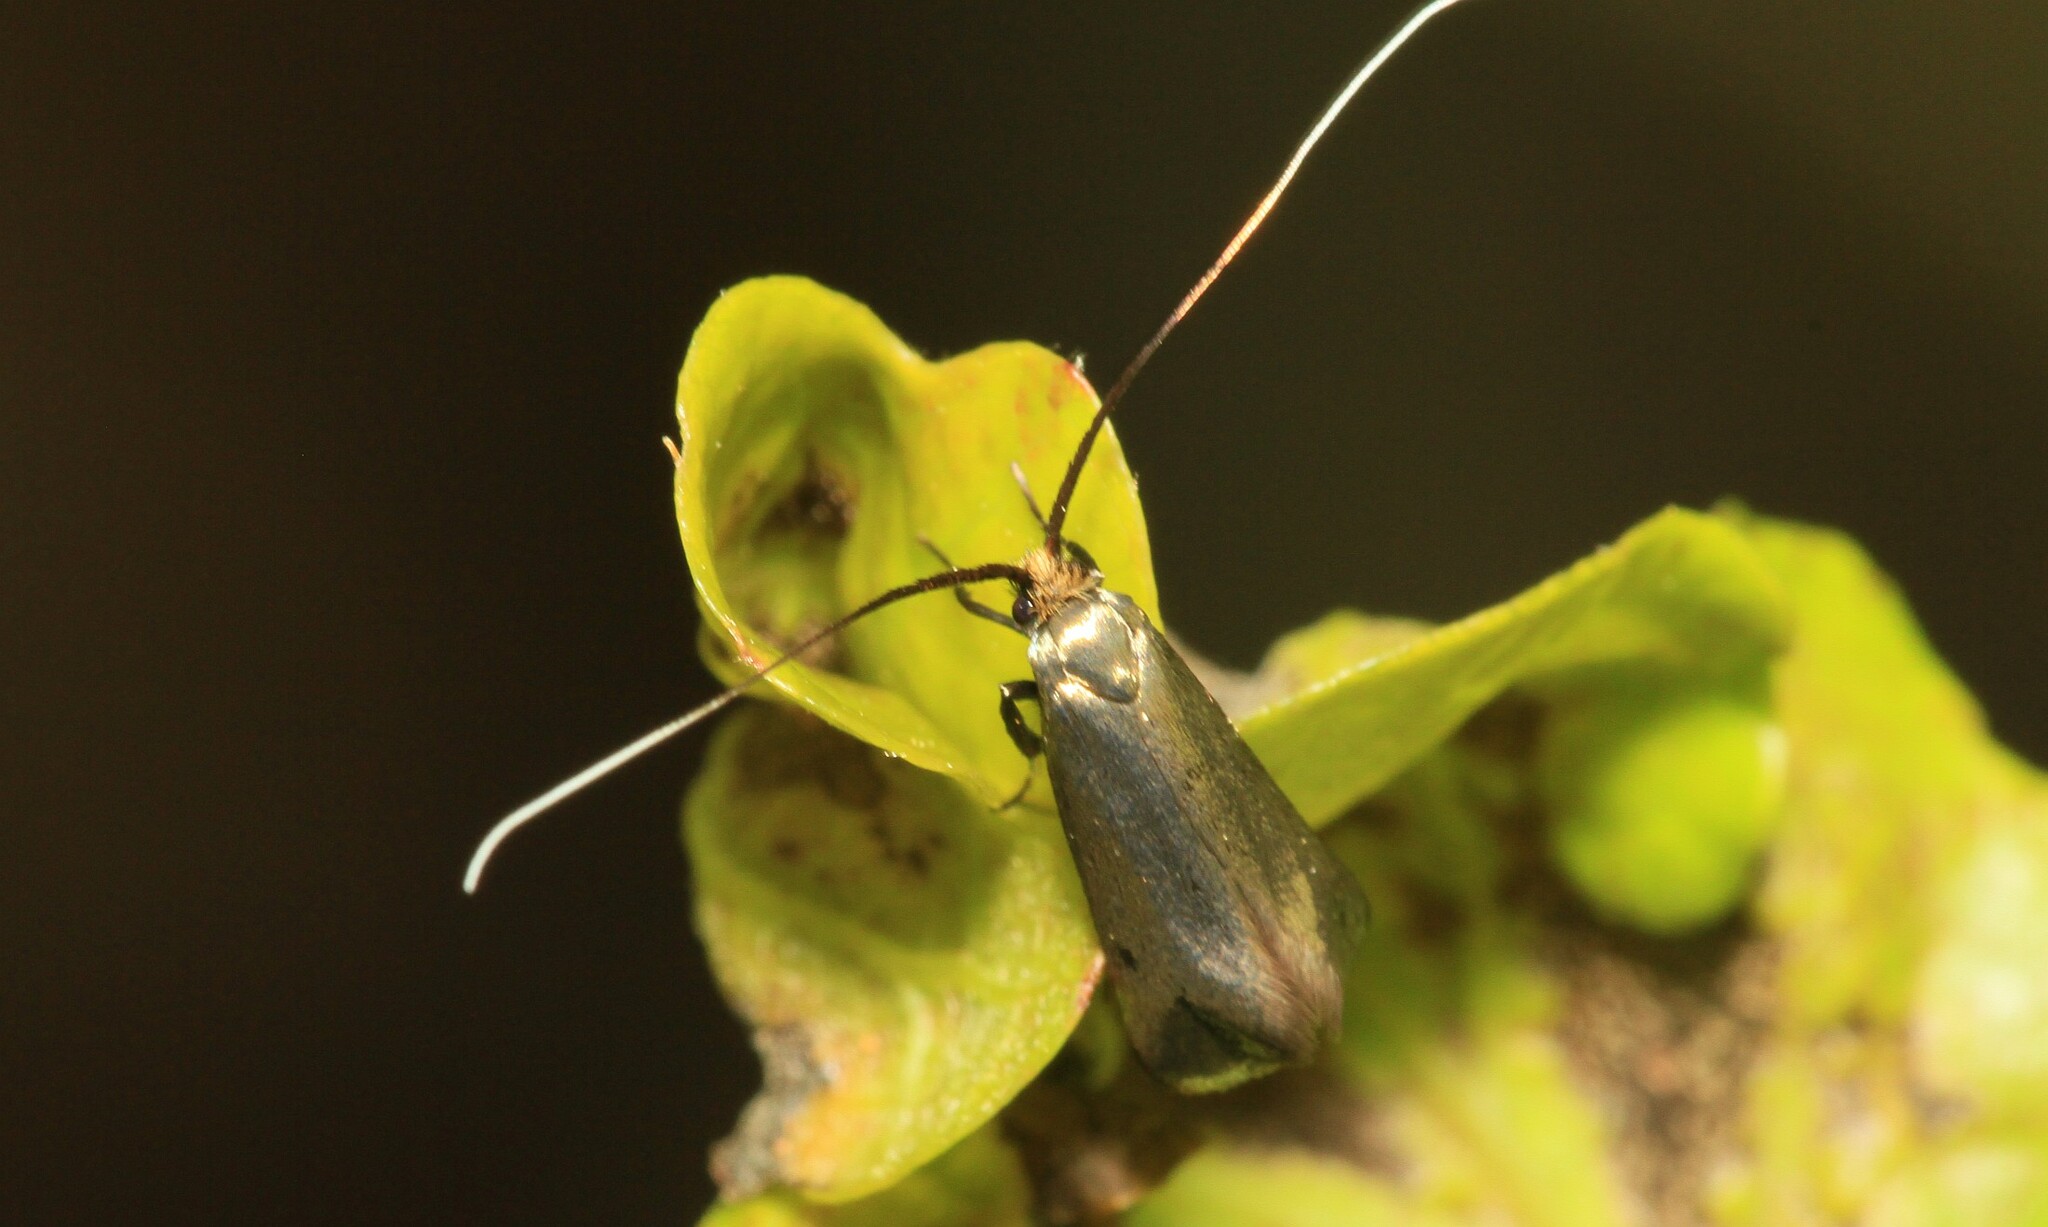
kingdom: Animalia
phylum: Arthropoda
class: Insecta
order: Lepidoptera
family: Adelidae
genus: Adela
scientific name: Adela viridella
